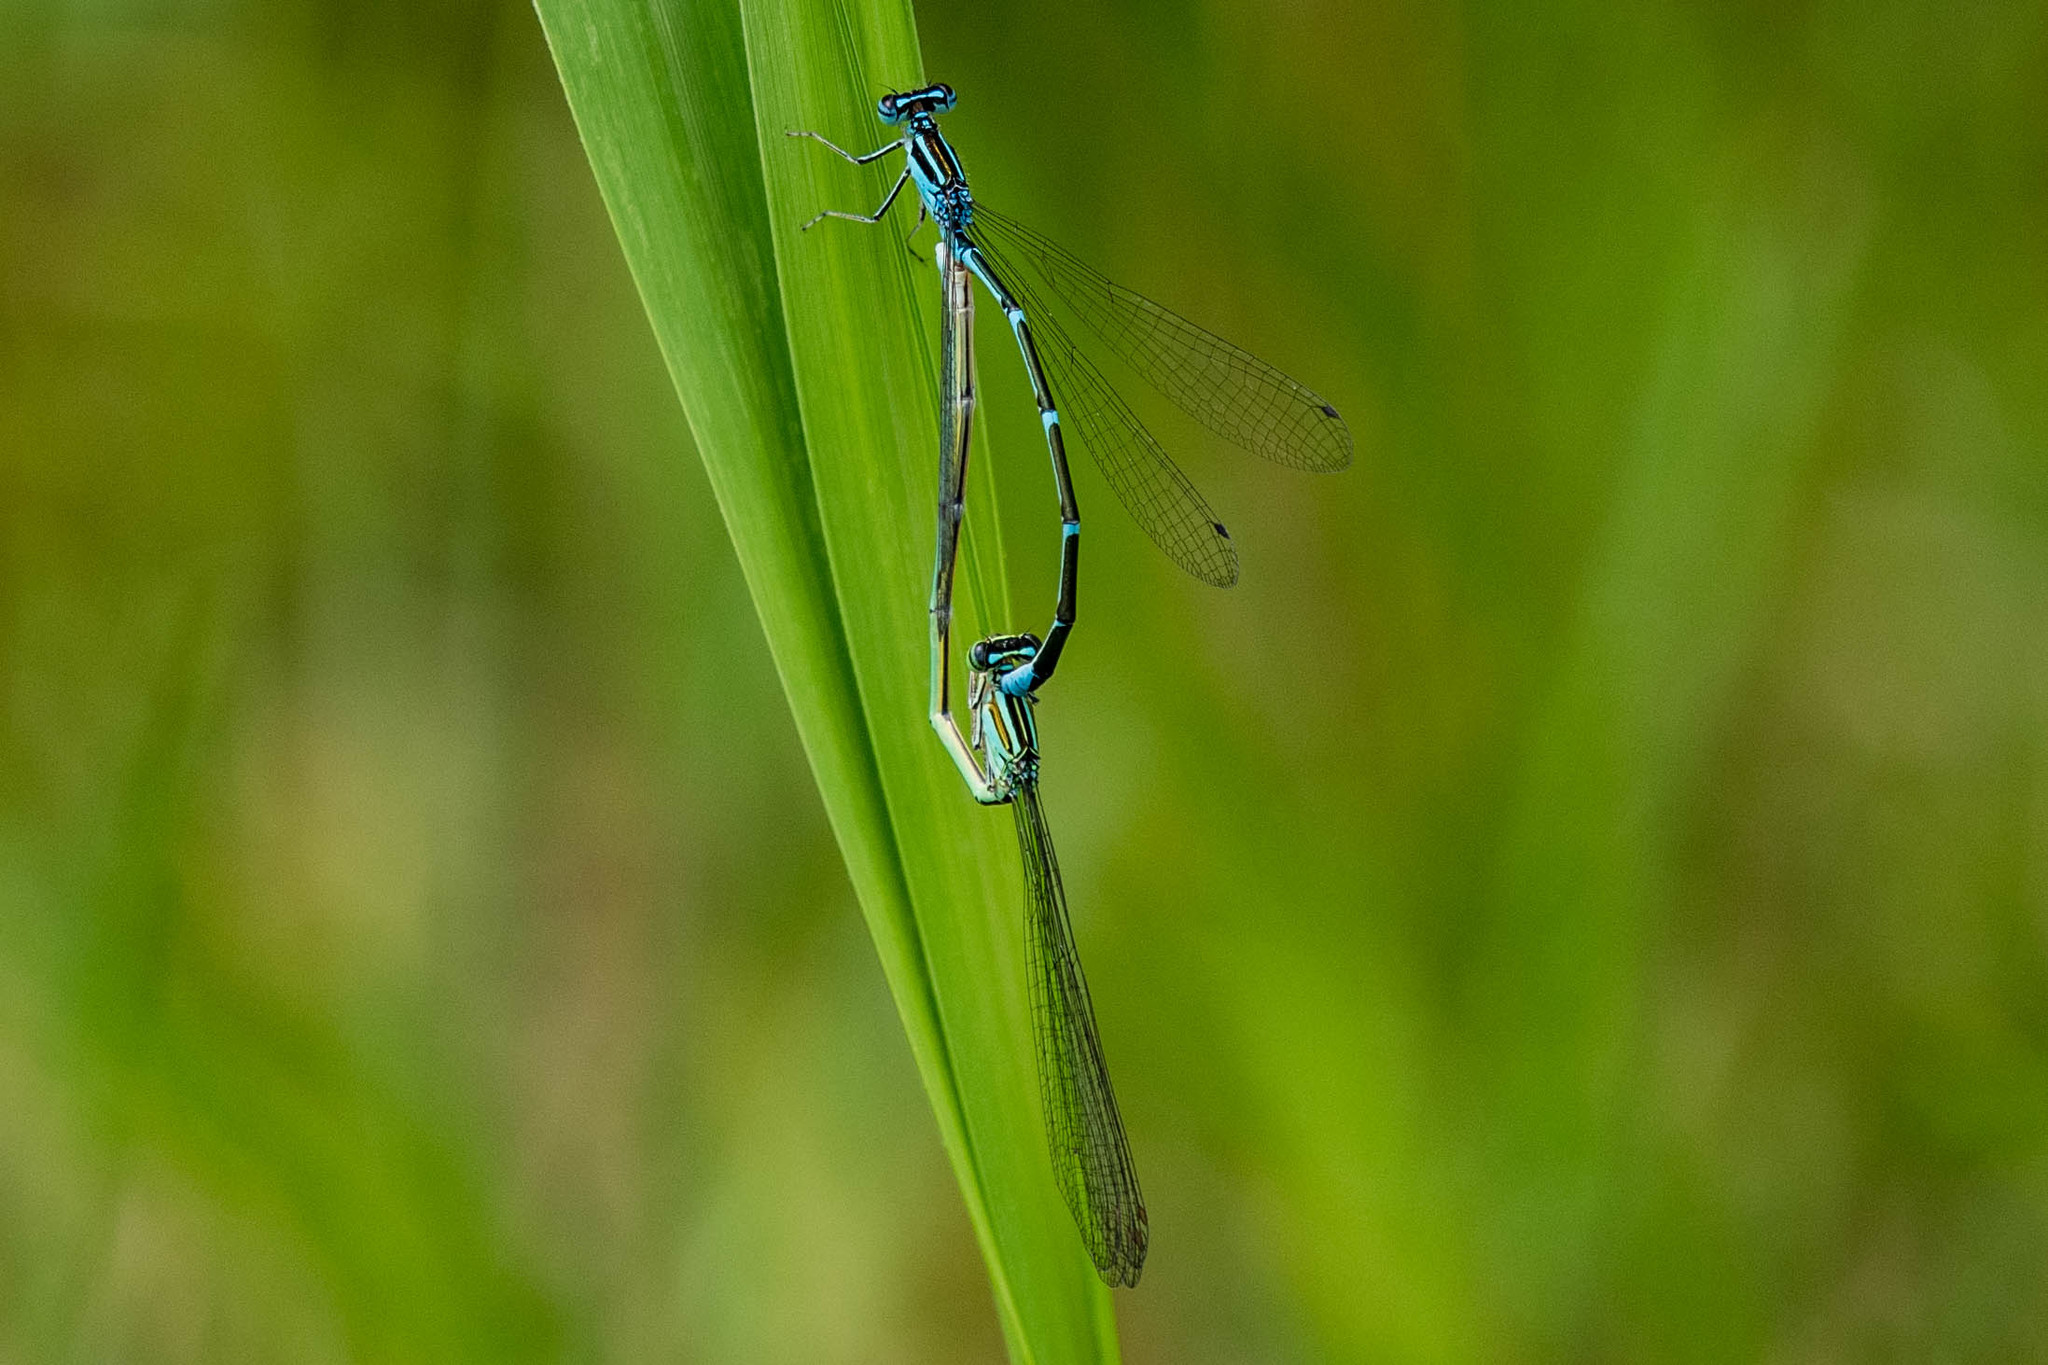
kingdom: Animalia
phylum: Arthropoda
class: Insecta
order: Odonata
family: Coenagrionidae
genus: Enallagma
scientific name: Enallagma exsulans
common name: Stream bluet
